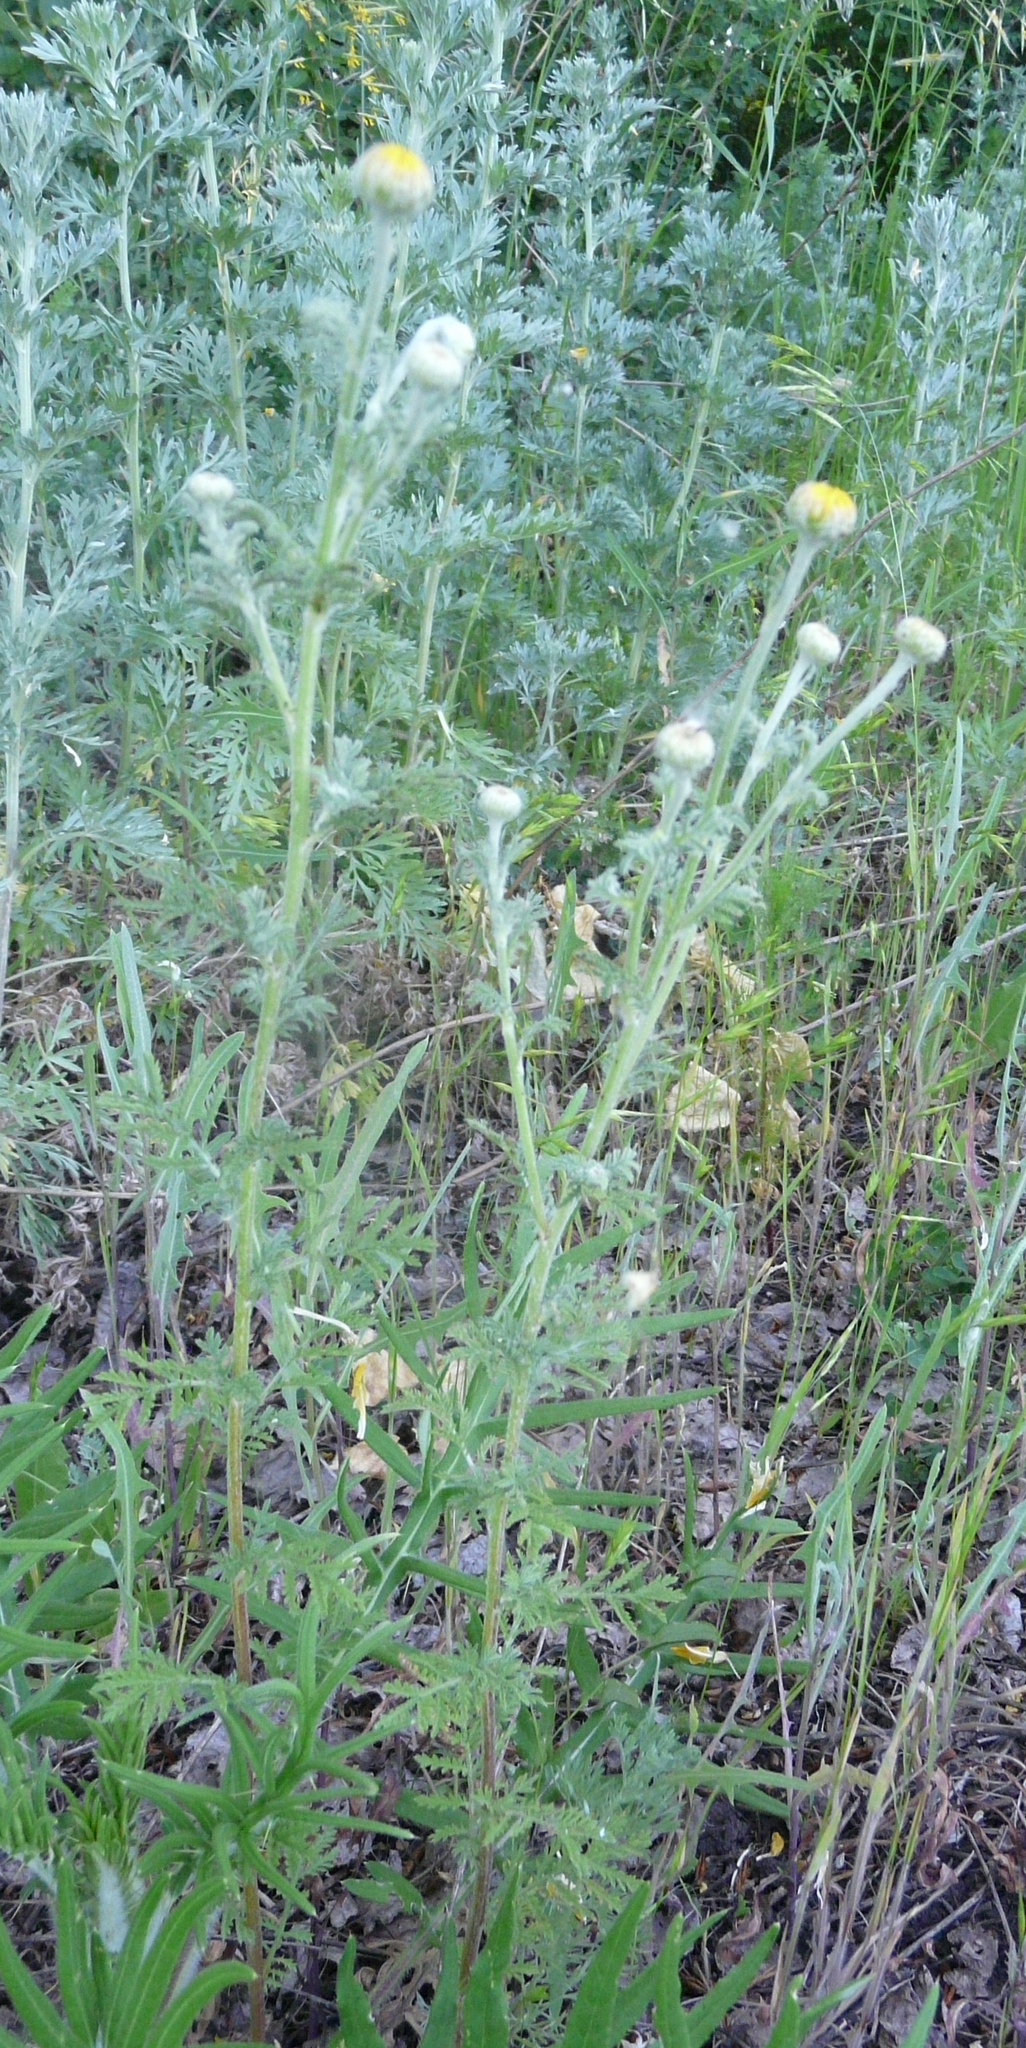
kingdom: Plantae
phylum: Tracheophyta
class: Magnoliopsida
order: Asterales
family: Asteraceae
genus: Cota
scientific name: Cota tinctoria
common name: Golden chamomile
